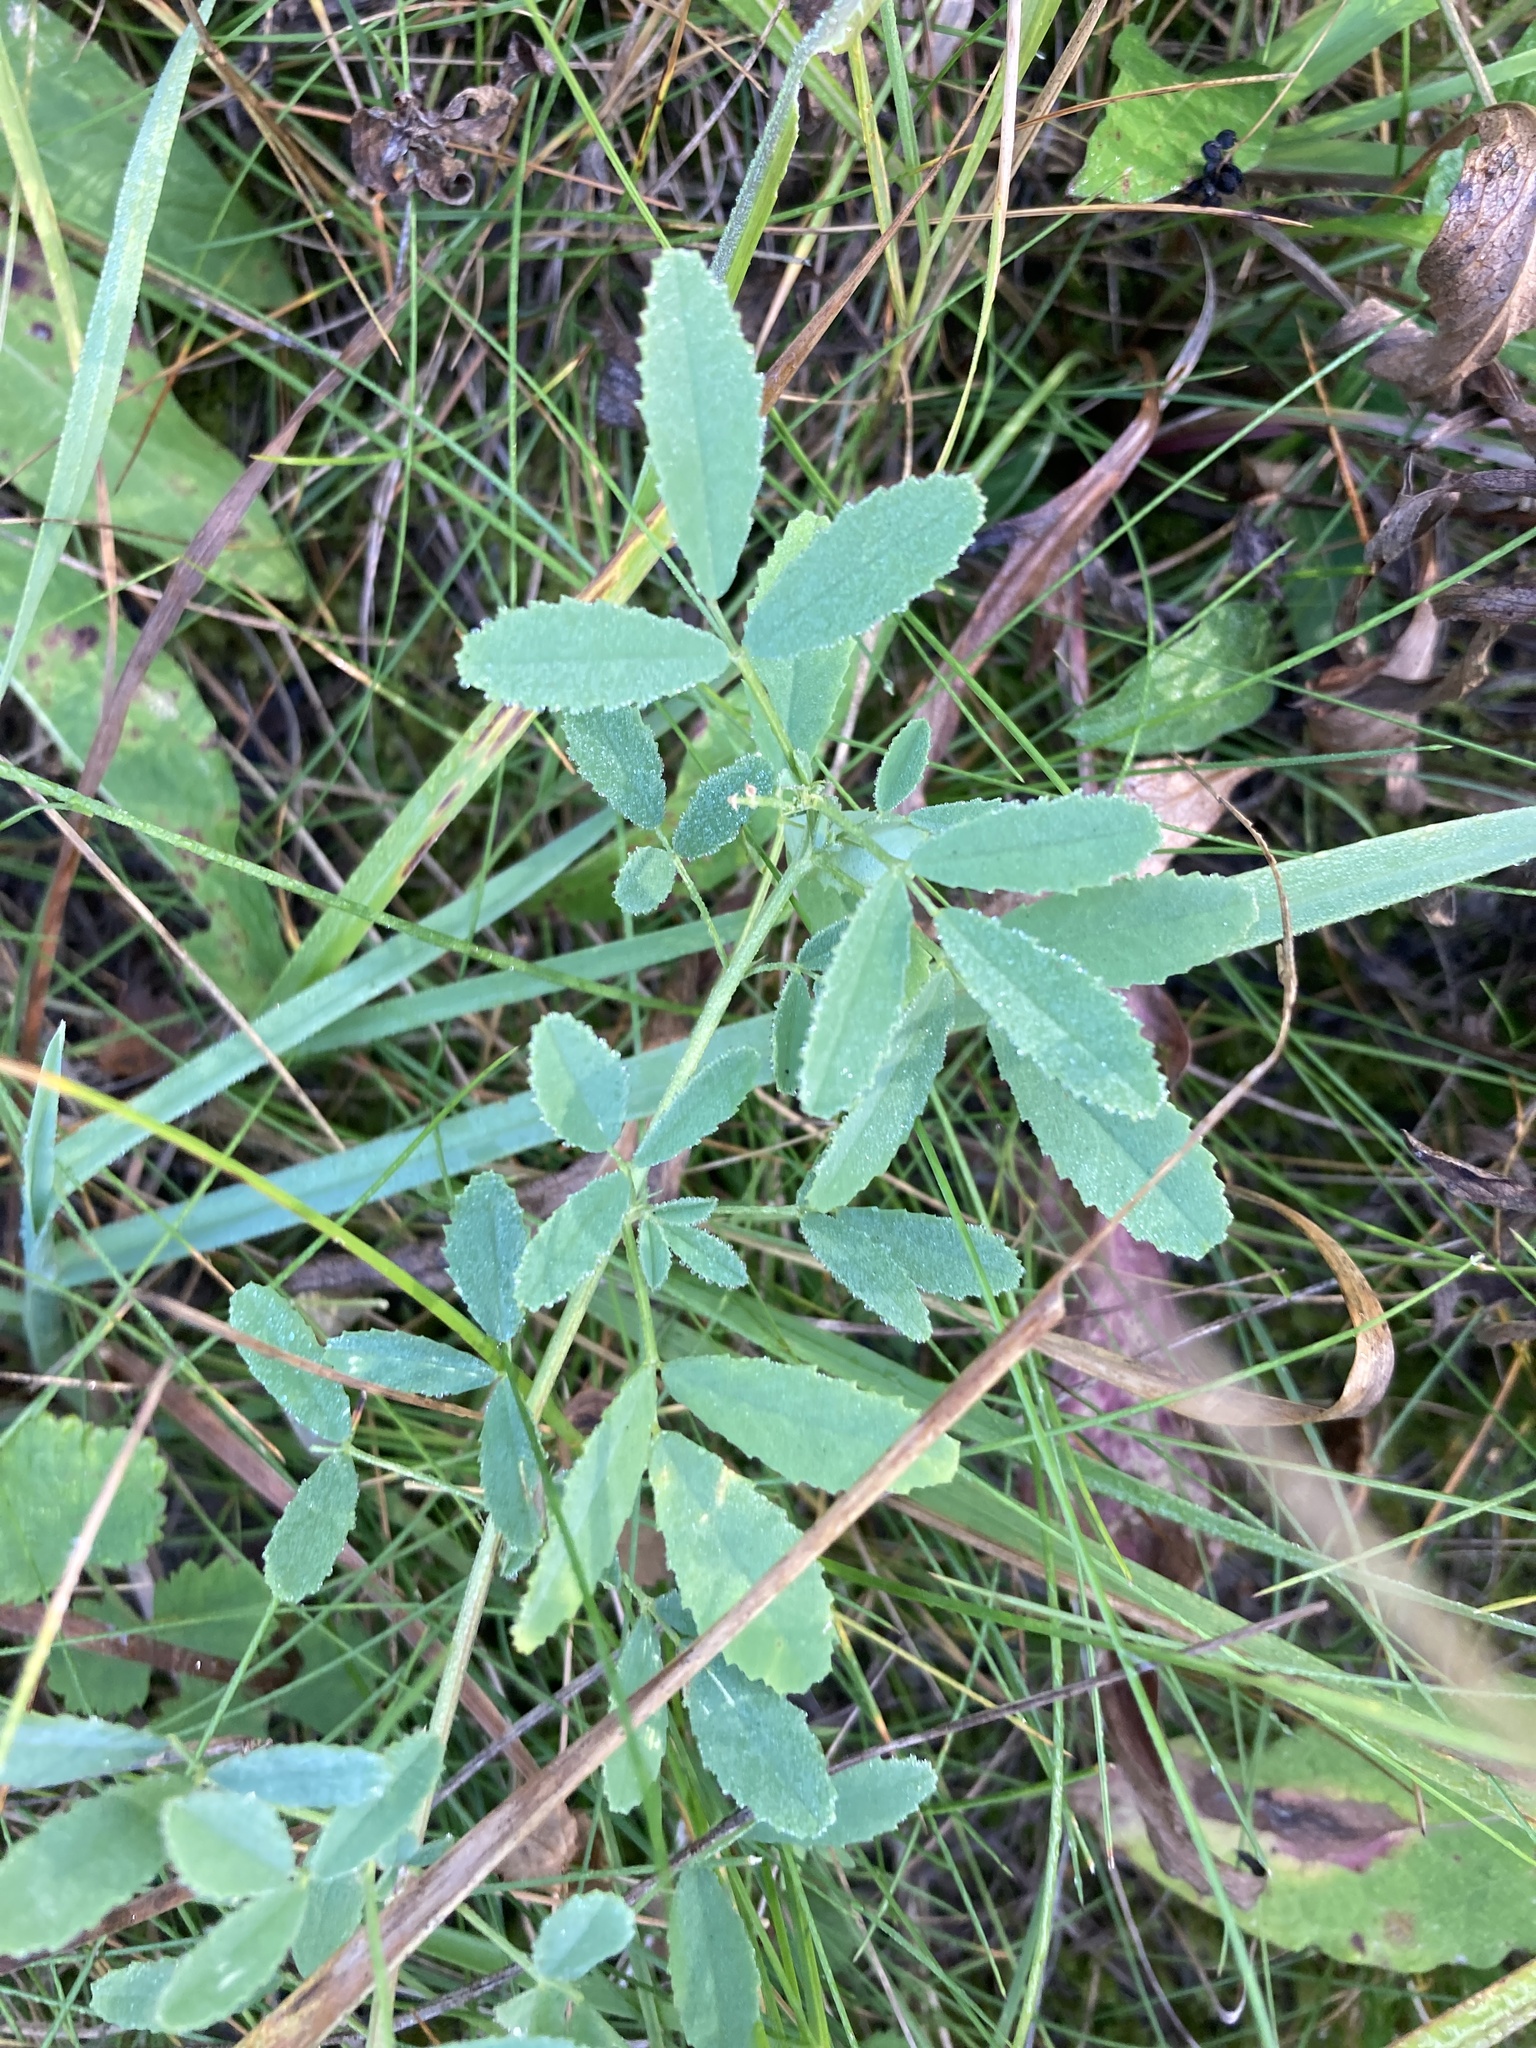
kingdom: Plantae
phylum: Tracheophyta
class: Magnoliopsida
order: Fabales
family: Fabaceae
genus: Melilotus
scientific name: Melilotus albus
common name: White melilot
